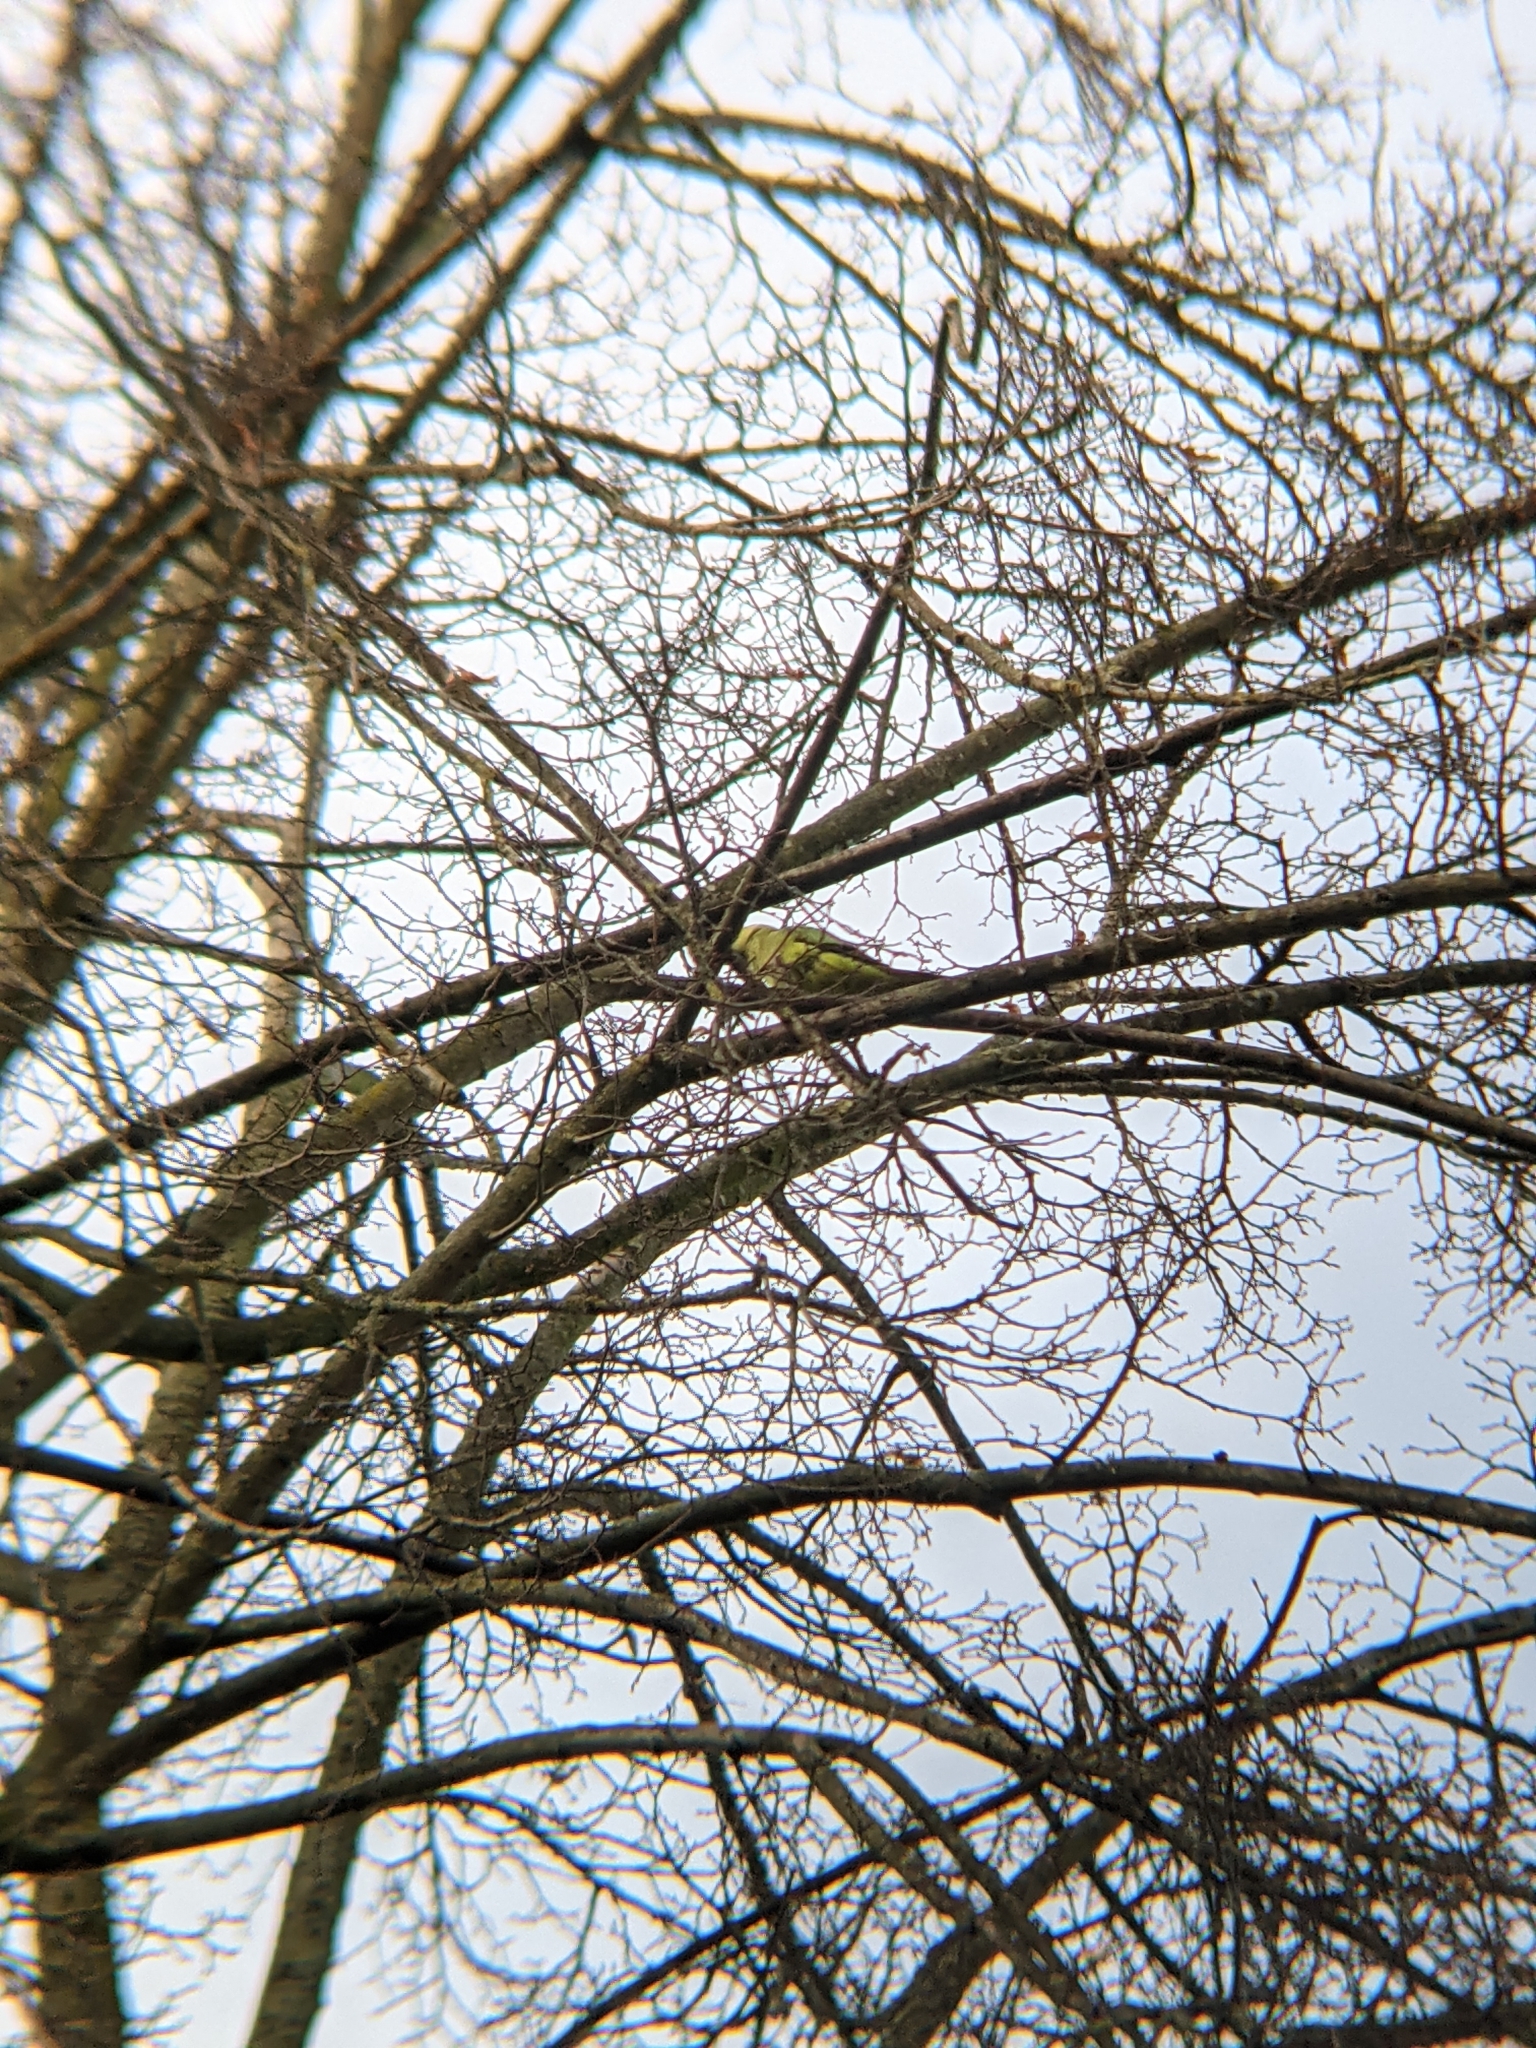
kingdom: Animalia
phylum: Chordata
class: Aves
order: Psittaciformes
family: Psittacidae
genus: Psittacula
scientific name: Psittacula krameri
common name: Rose-ringed parakeet
